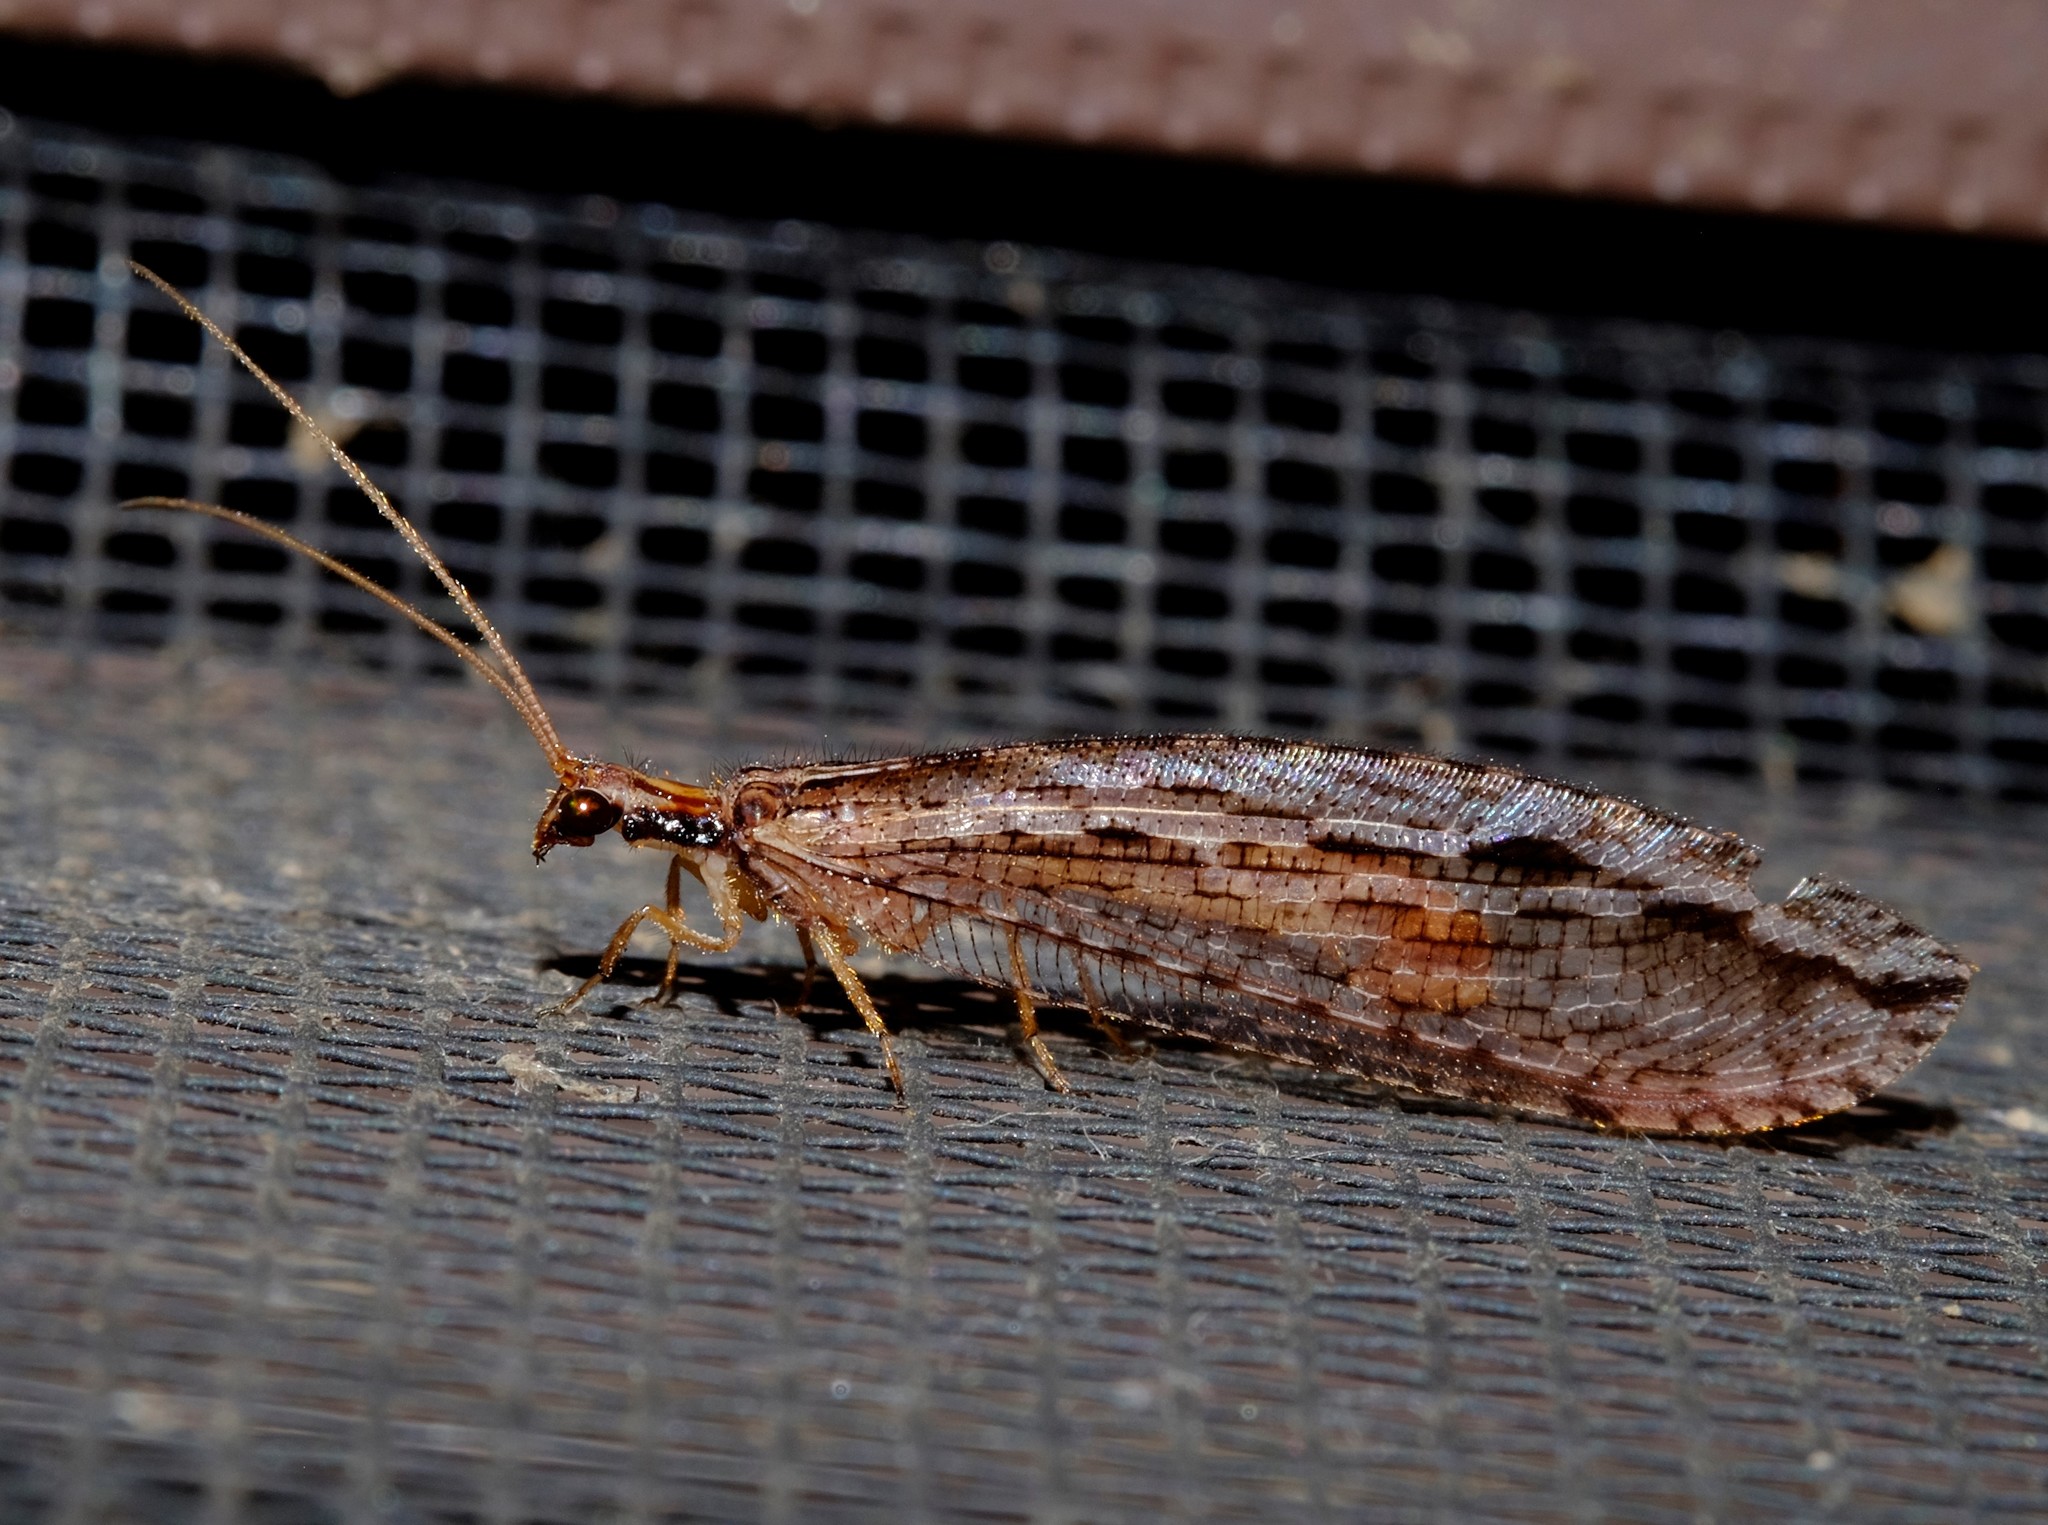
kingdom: Animalia
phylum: Arthropoda
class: Insecta
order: Neuroptera
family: Osmylidae
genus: Stenosmylus
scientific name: Stenosmylus stenopterus
